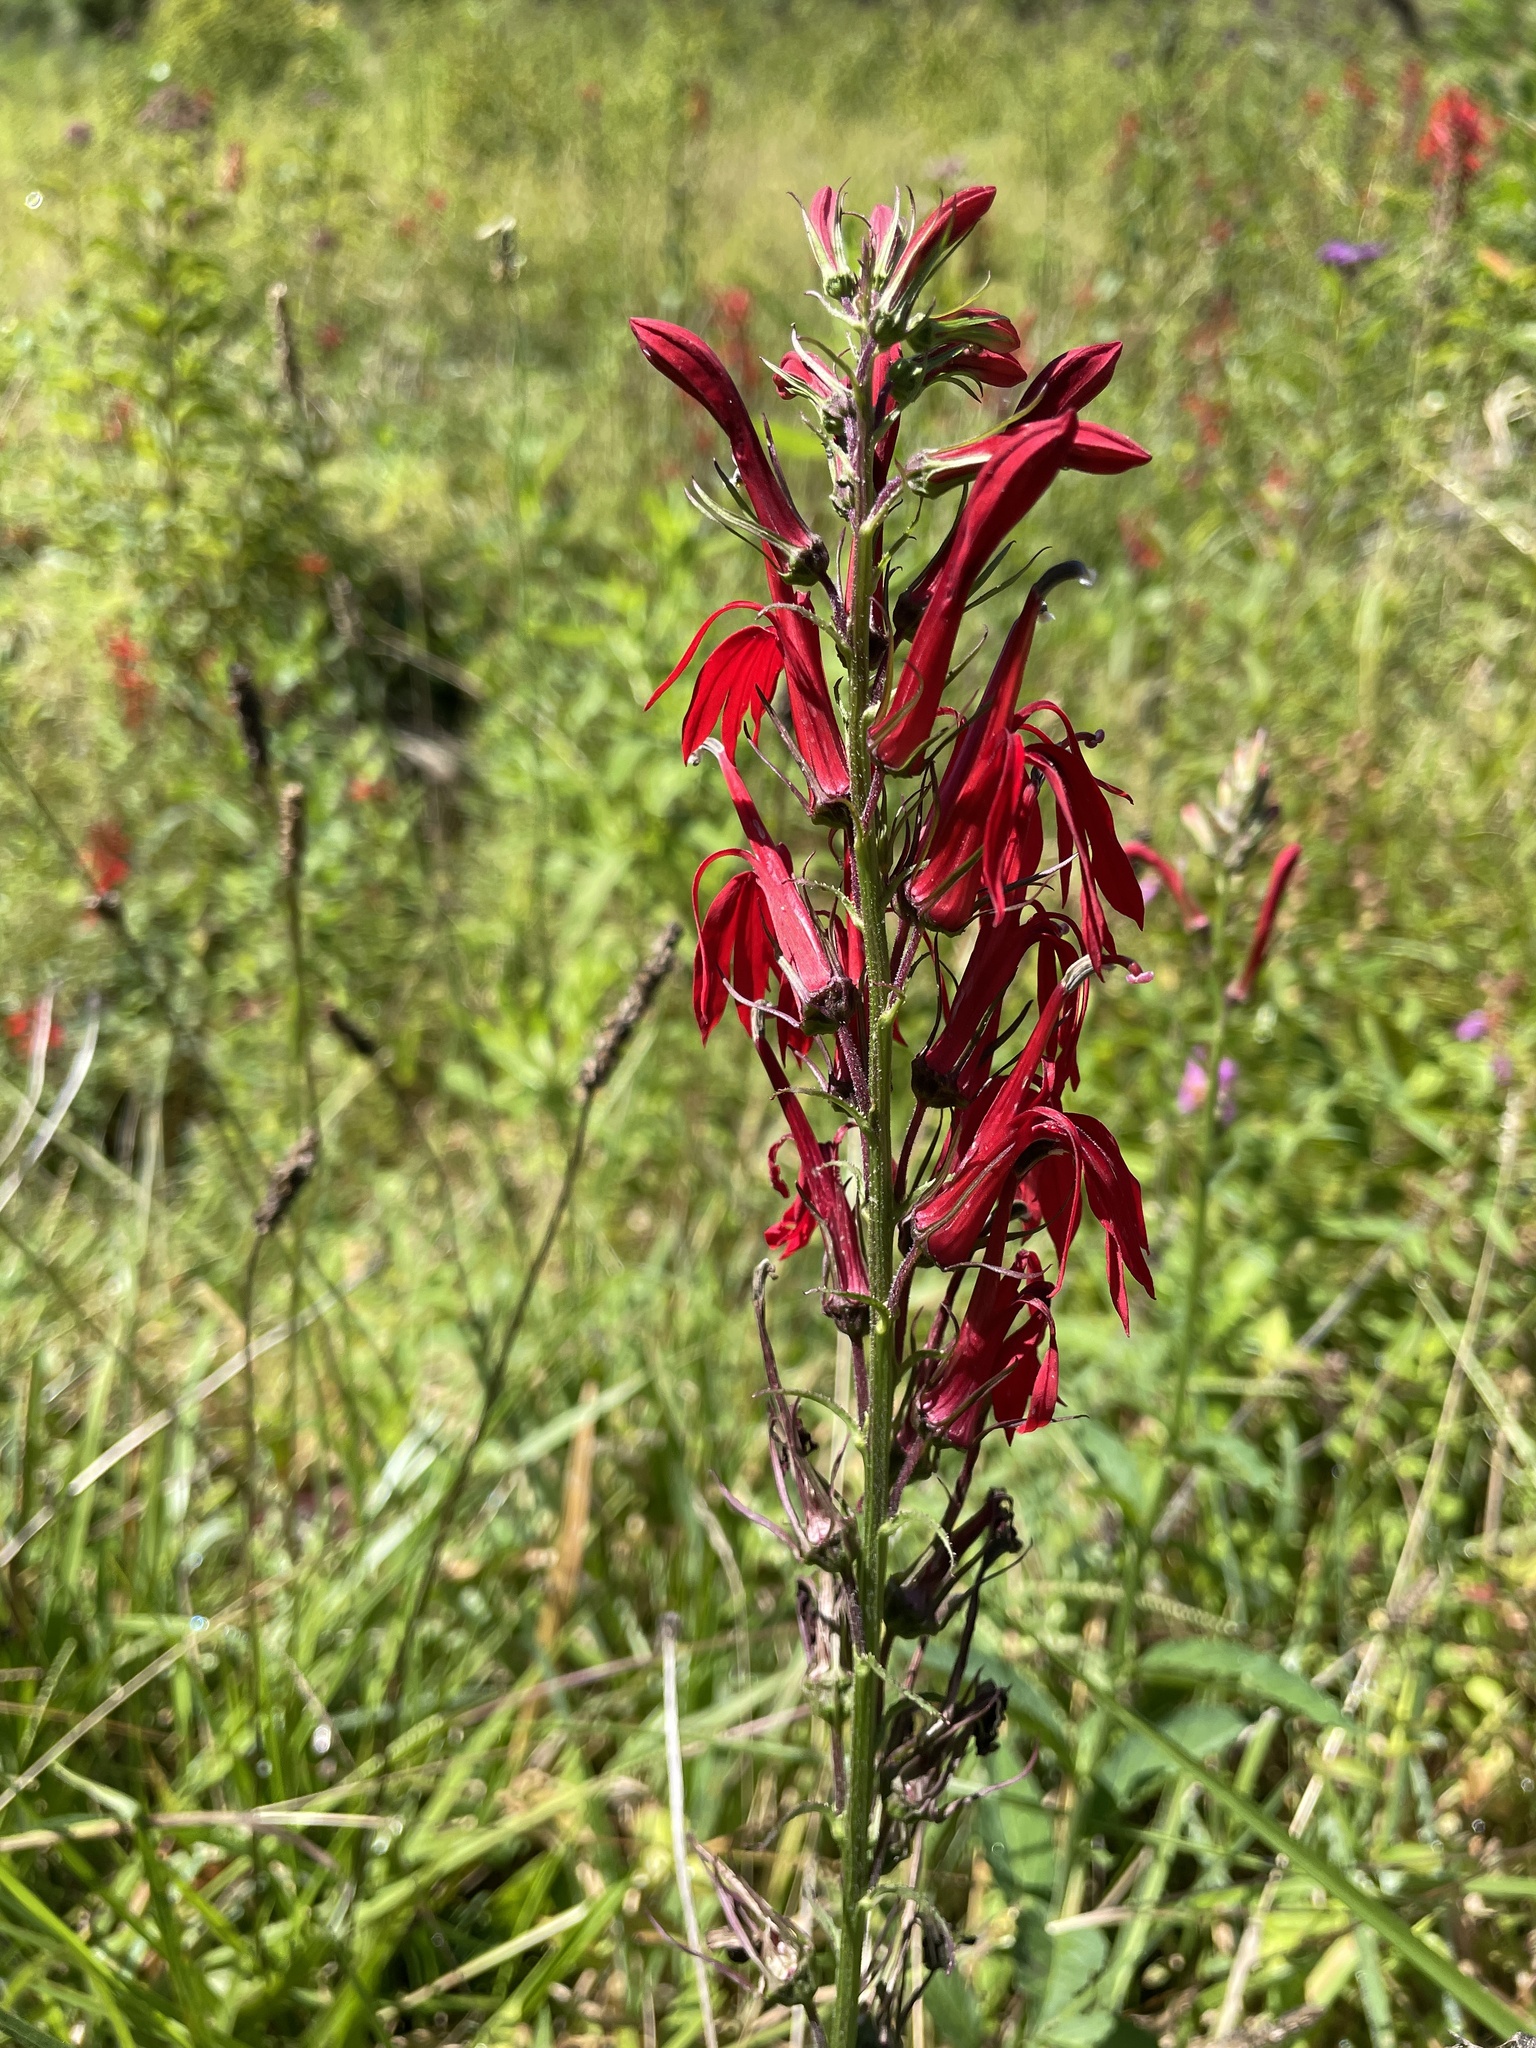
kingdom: Plantae
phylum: Tracheophyta
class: Magnoliopsida
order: Asterales
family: Campanulaceae
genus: Lobelia
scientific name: Lobelia cardinalis
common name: Cardinal flower
